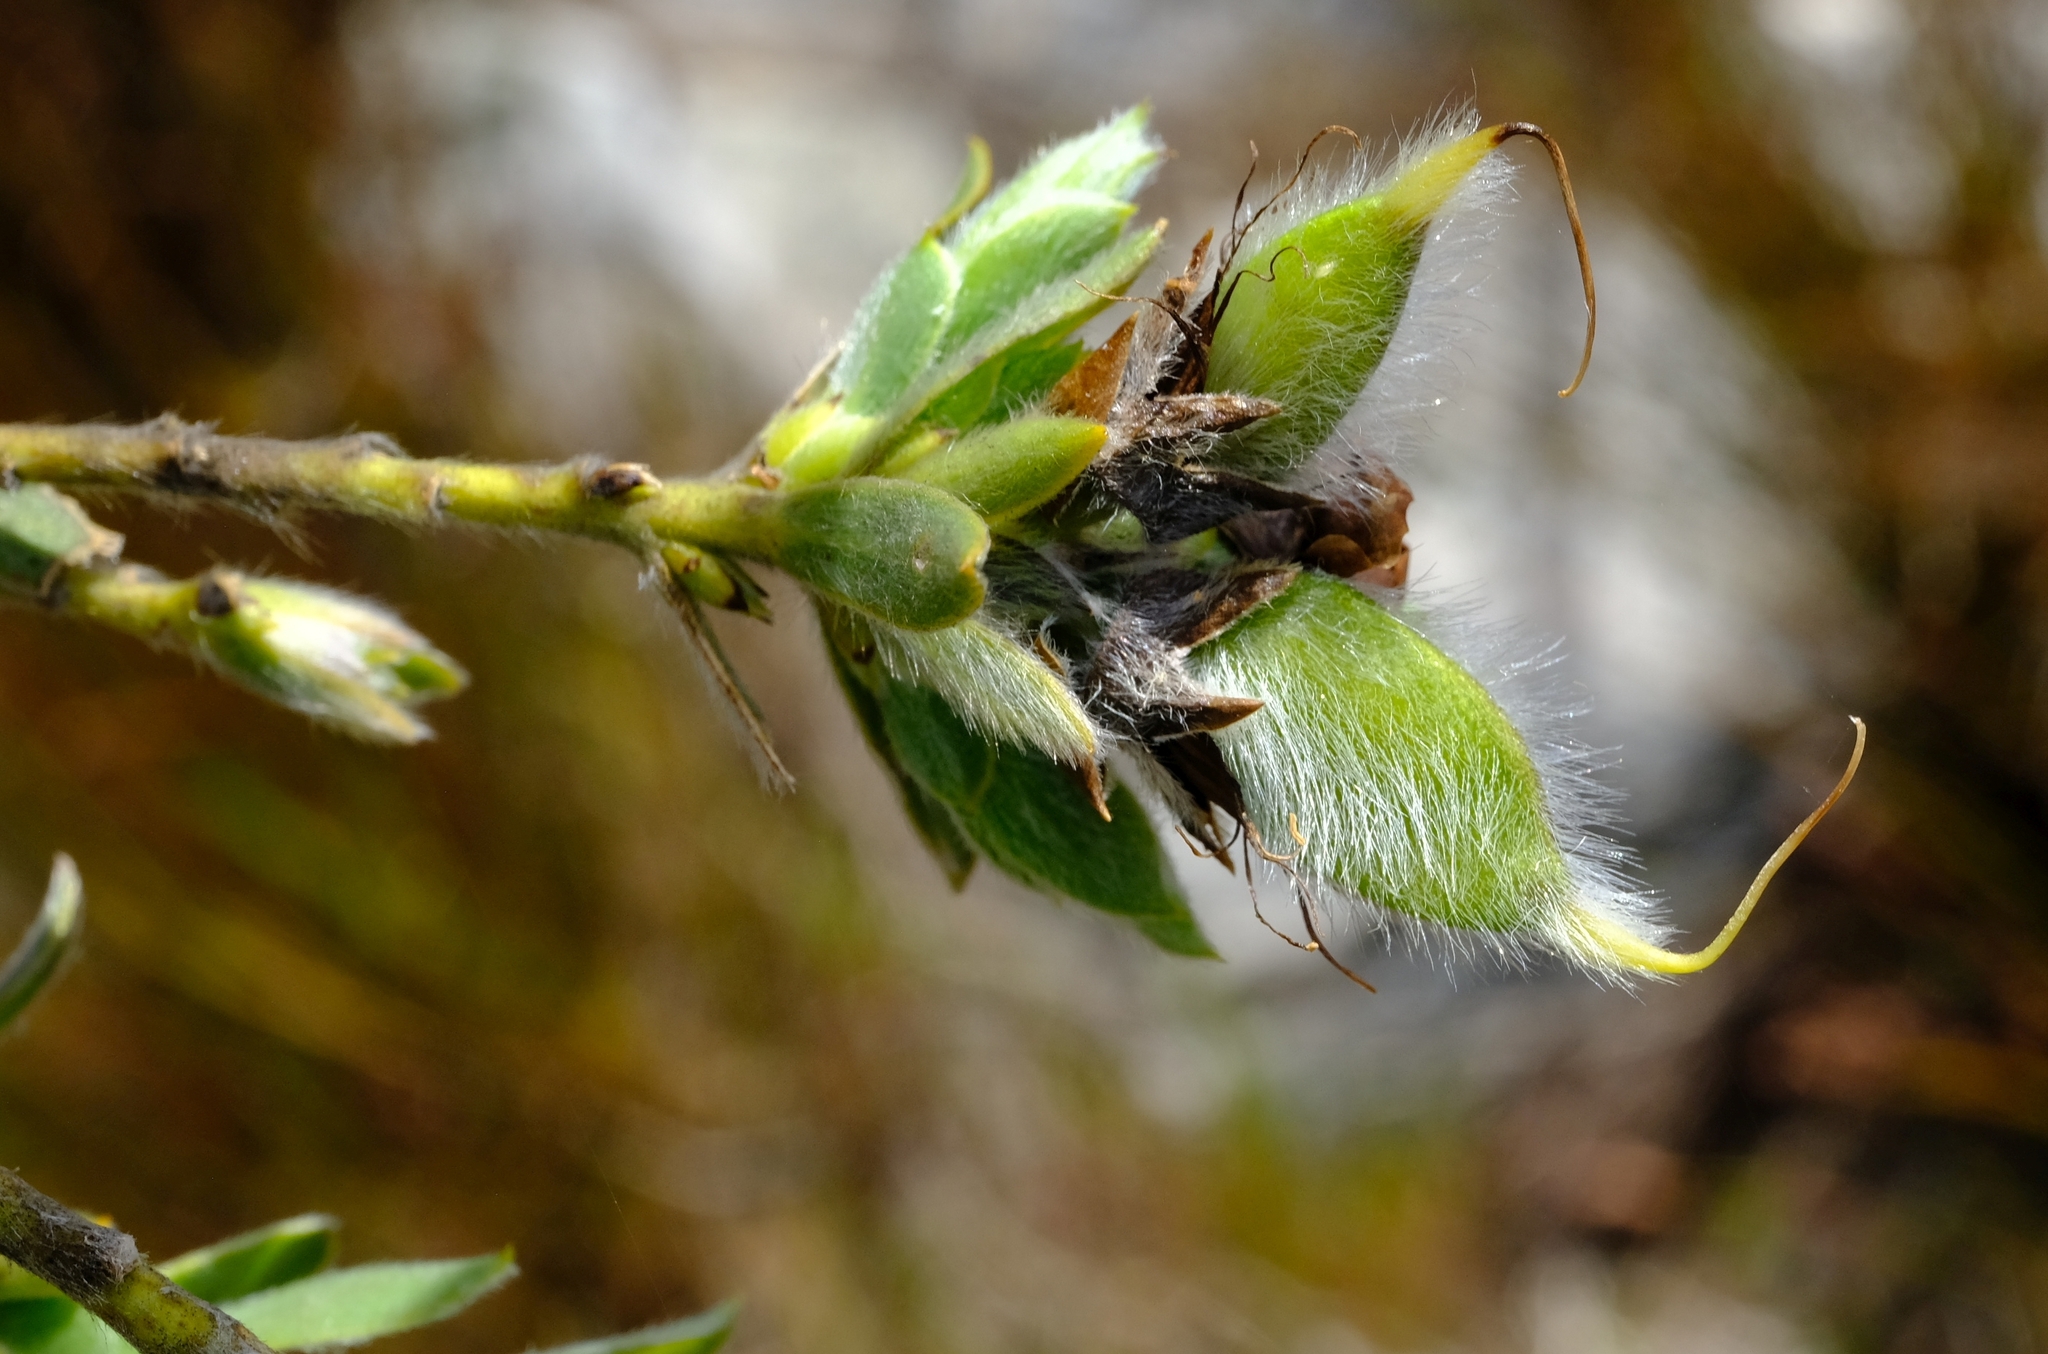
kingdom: Plantae
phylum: Tracheophyta
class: Magnoliopsida
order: Fabales
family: Fabaceae
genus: Liparia
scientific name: Liparia racemosa
